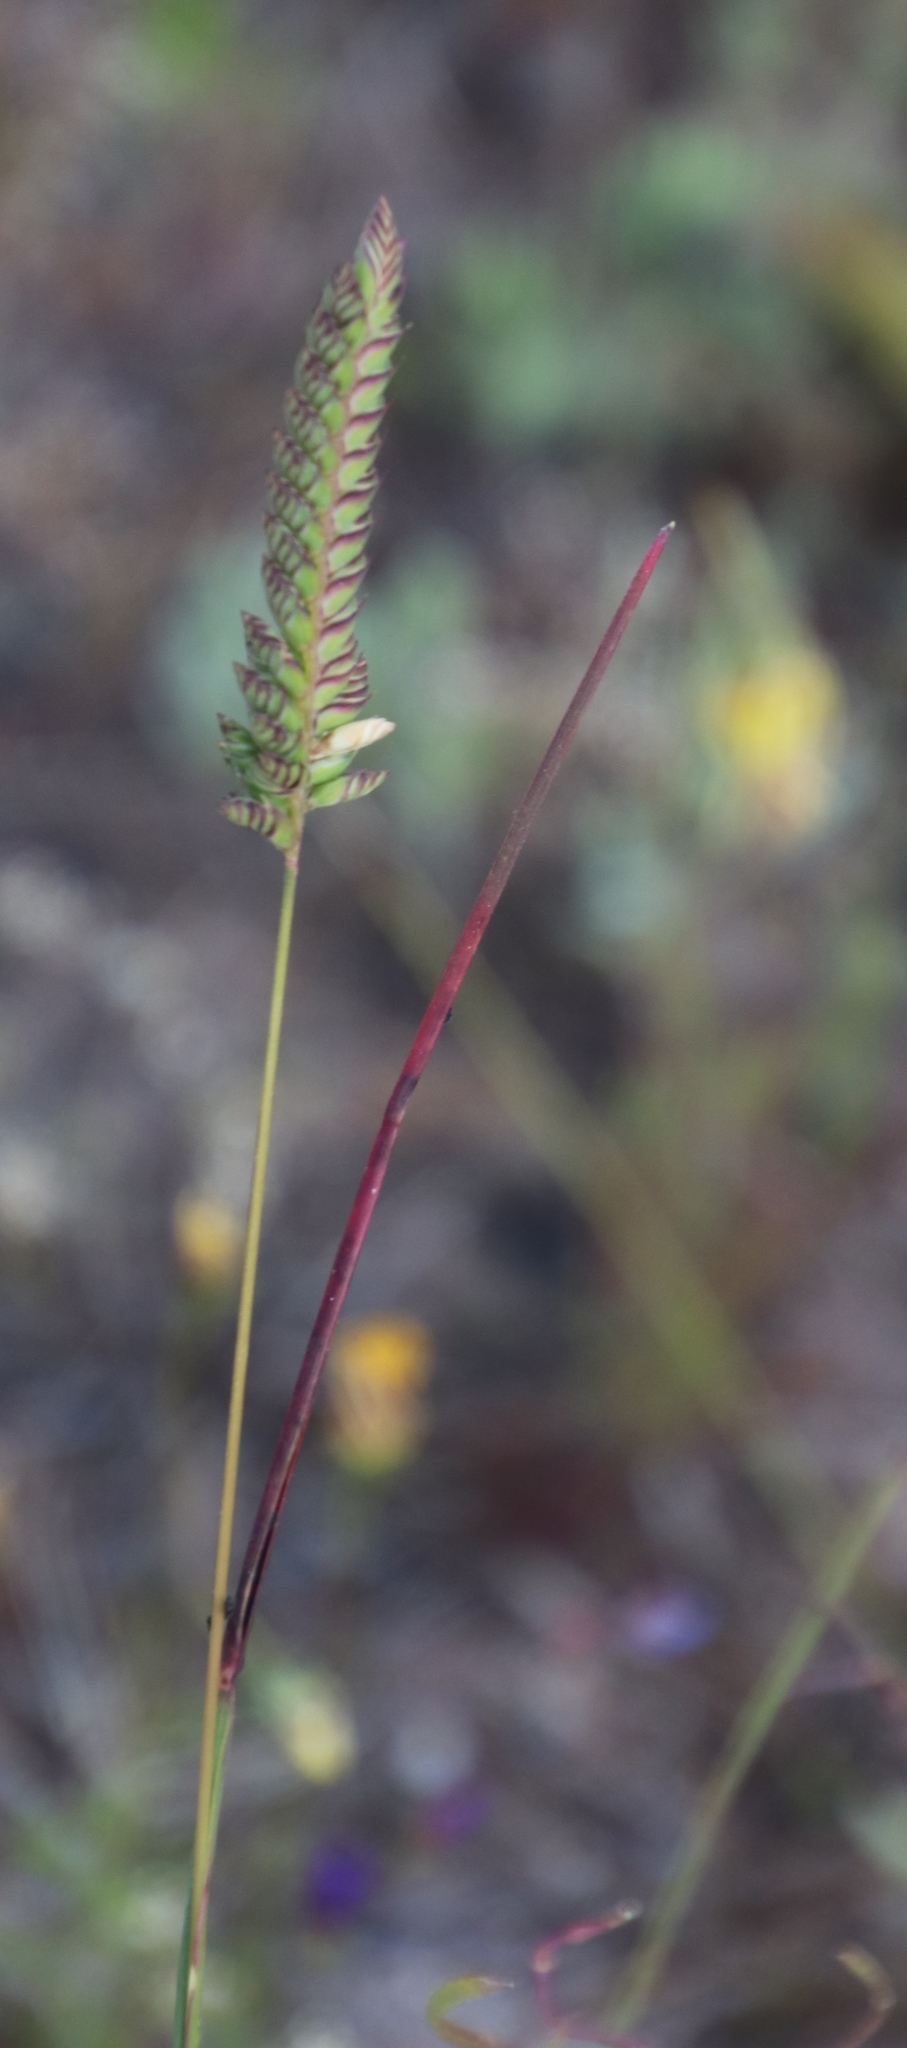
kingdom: Plantae
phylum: Tracheophyta
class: Liliopsida
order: Poales
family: Poaceae
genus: Tribolium
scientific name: Tribolium uniolae
